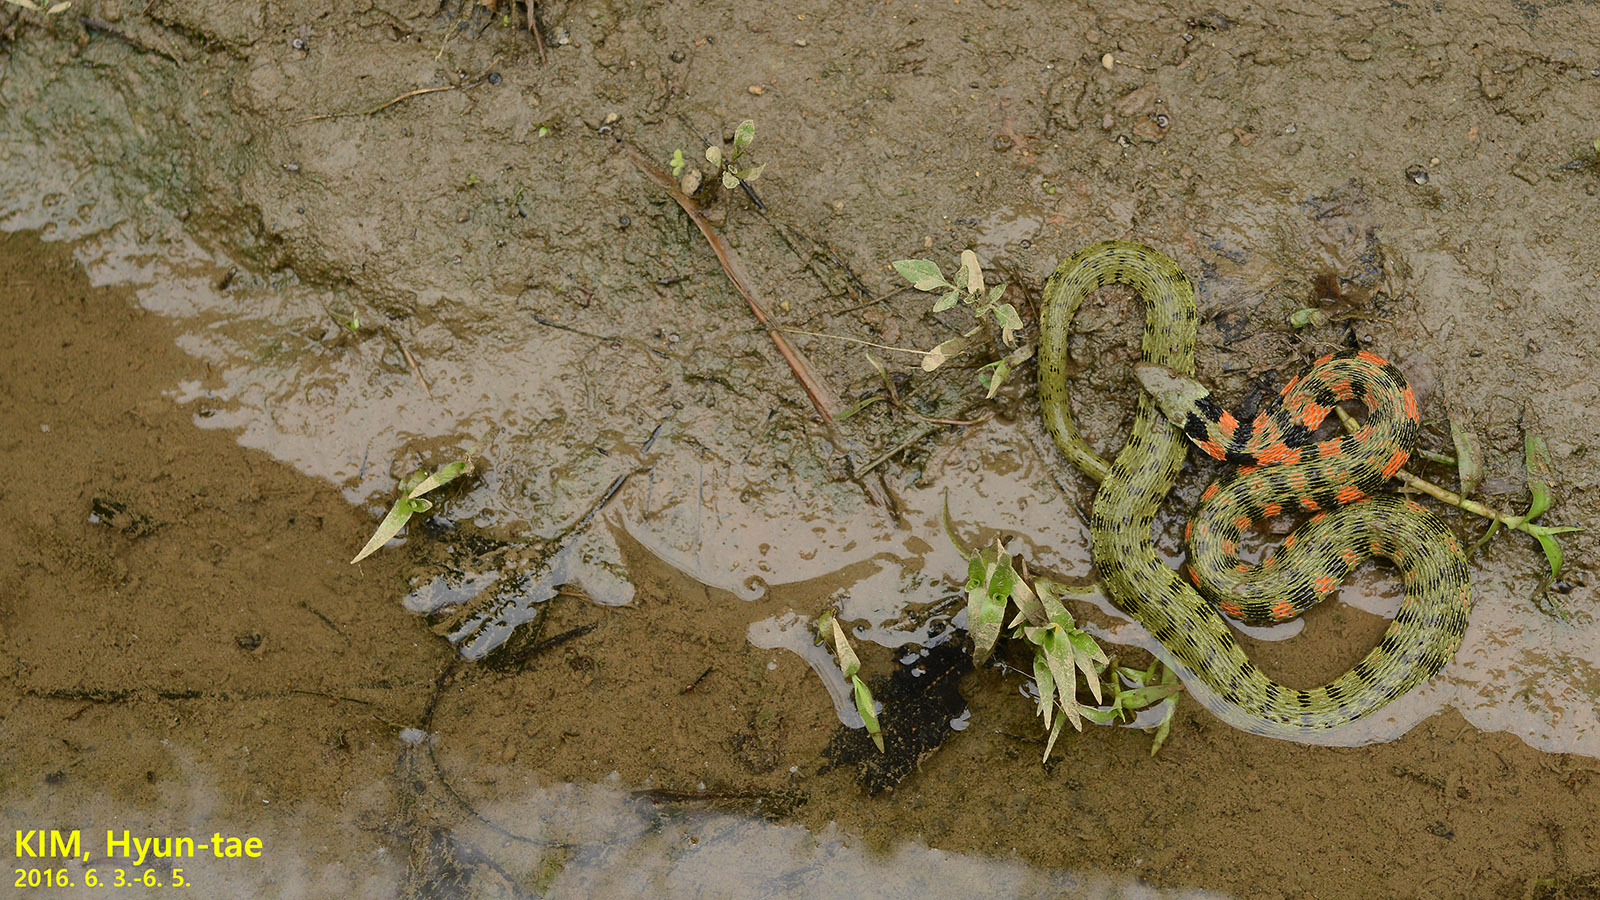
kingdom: Animalia
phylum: Chordata
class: Squamata
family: Colubridae
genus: Rhabdophis
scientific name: Rhabdophis tigrinus
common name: Tiger keelback
